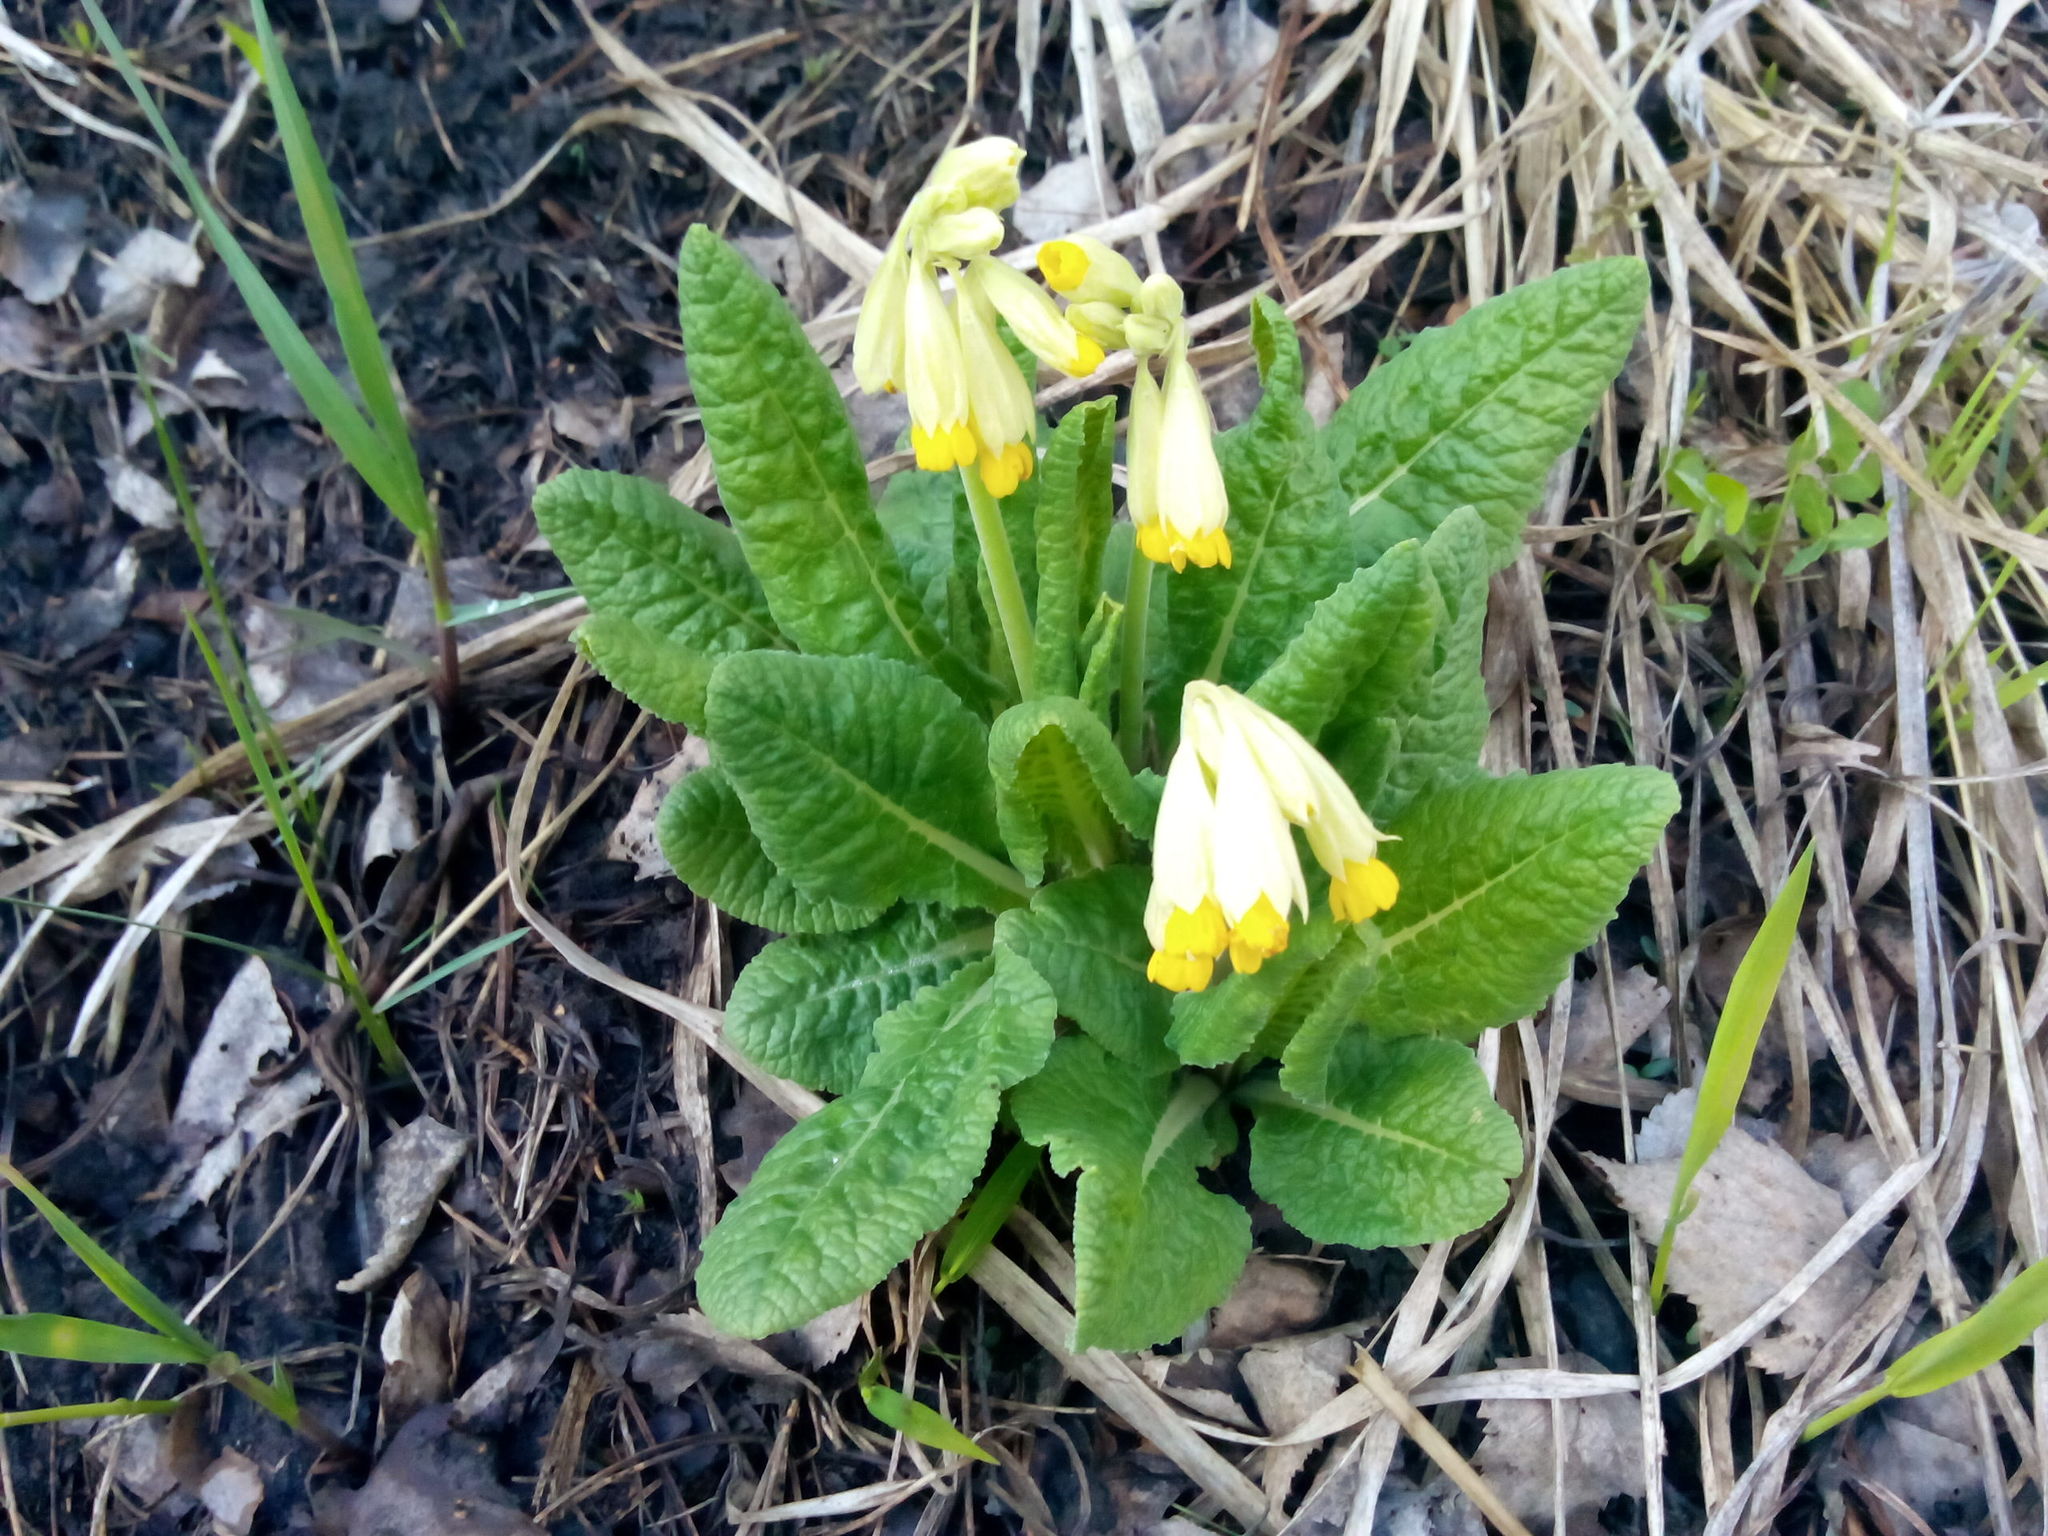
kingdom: Plantae
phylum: Tracheophyta
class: Magnoliopsida
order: Ericales
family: Primulaceae
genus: Primula
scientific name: Primula veris
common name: Cowslip
